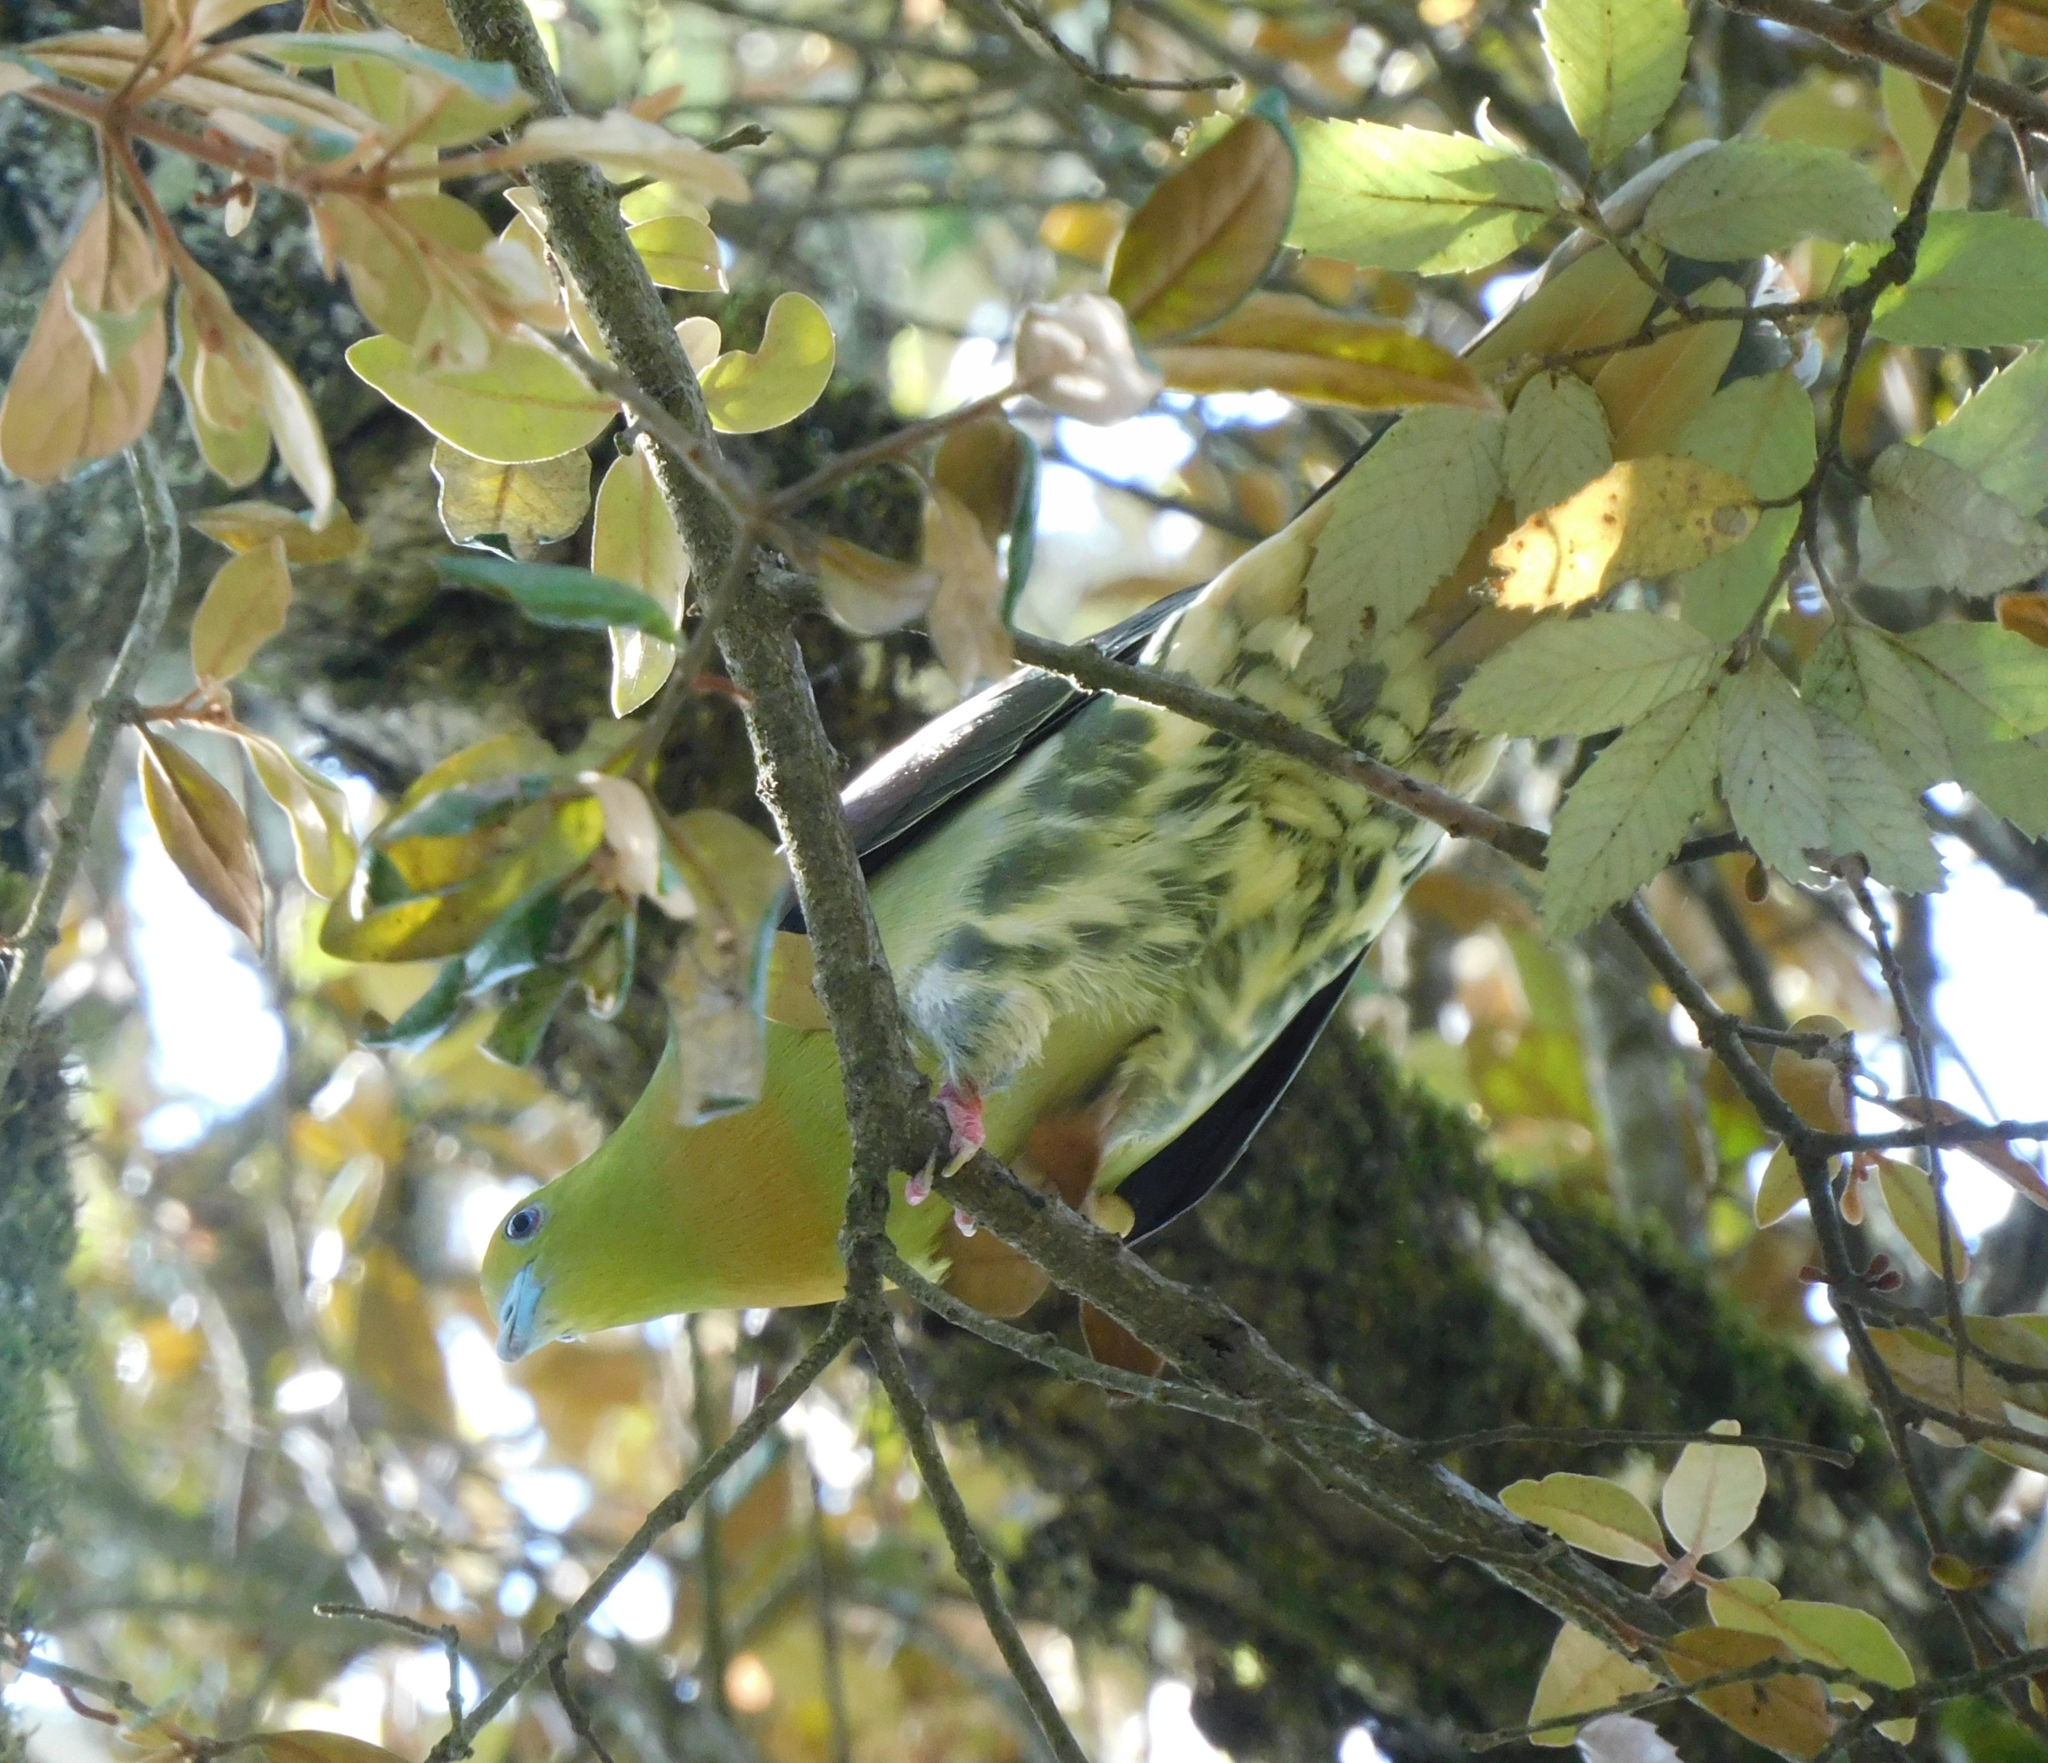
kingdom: Animalia
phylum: Chordata
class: Aves
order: Columbiformes
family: Columbidae
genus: Treron
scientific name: Treron sphenurus
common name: Wedge-tailed green pigeon
